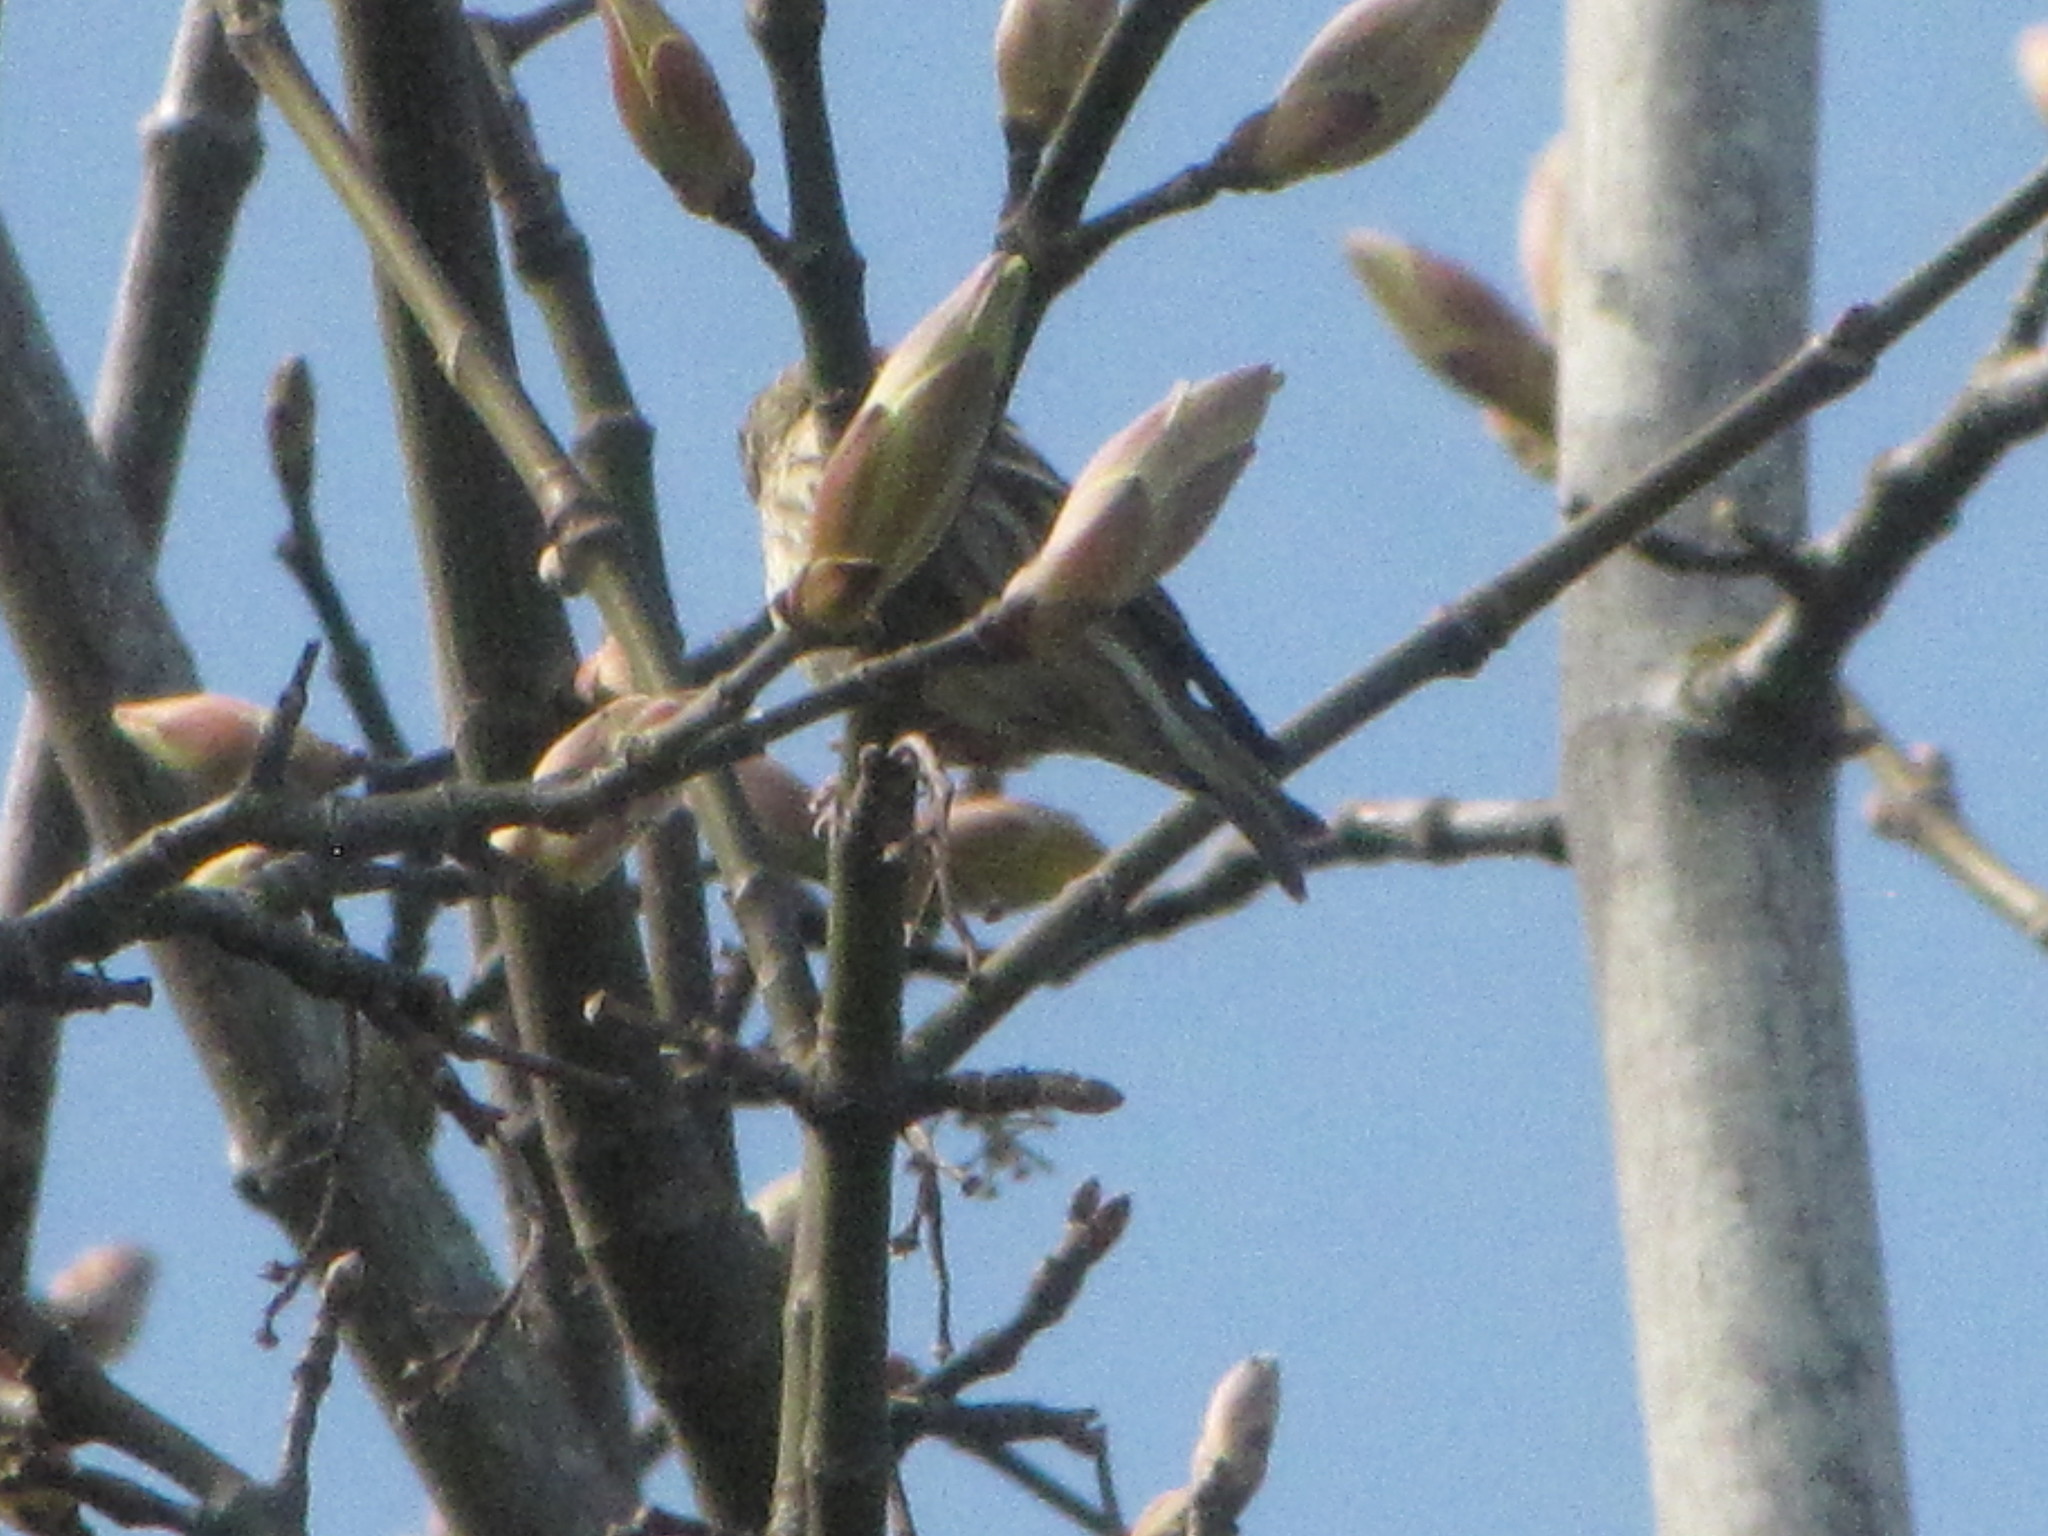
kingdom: Animalia
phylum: Chordata
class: Aves
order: Passeriformes
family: Fringillidae
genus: Spinus
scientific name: Spinus pinus
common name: Pine siskin
